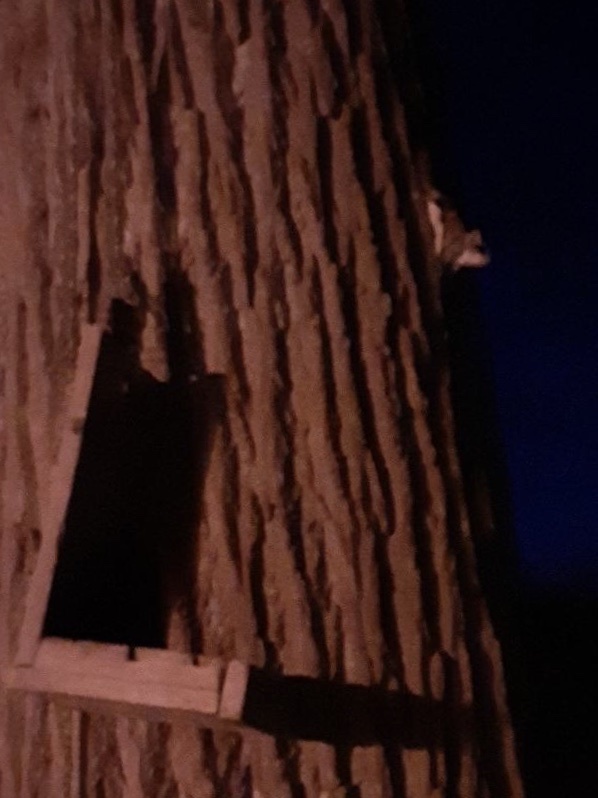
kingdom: Animalia
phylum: Chordata
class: Mammalia
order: Rodentia
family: Sciuridae
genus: Glaucomys
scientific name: Glaucomys volans
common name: Southern flying squirrel
